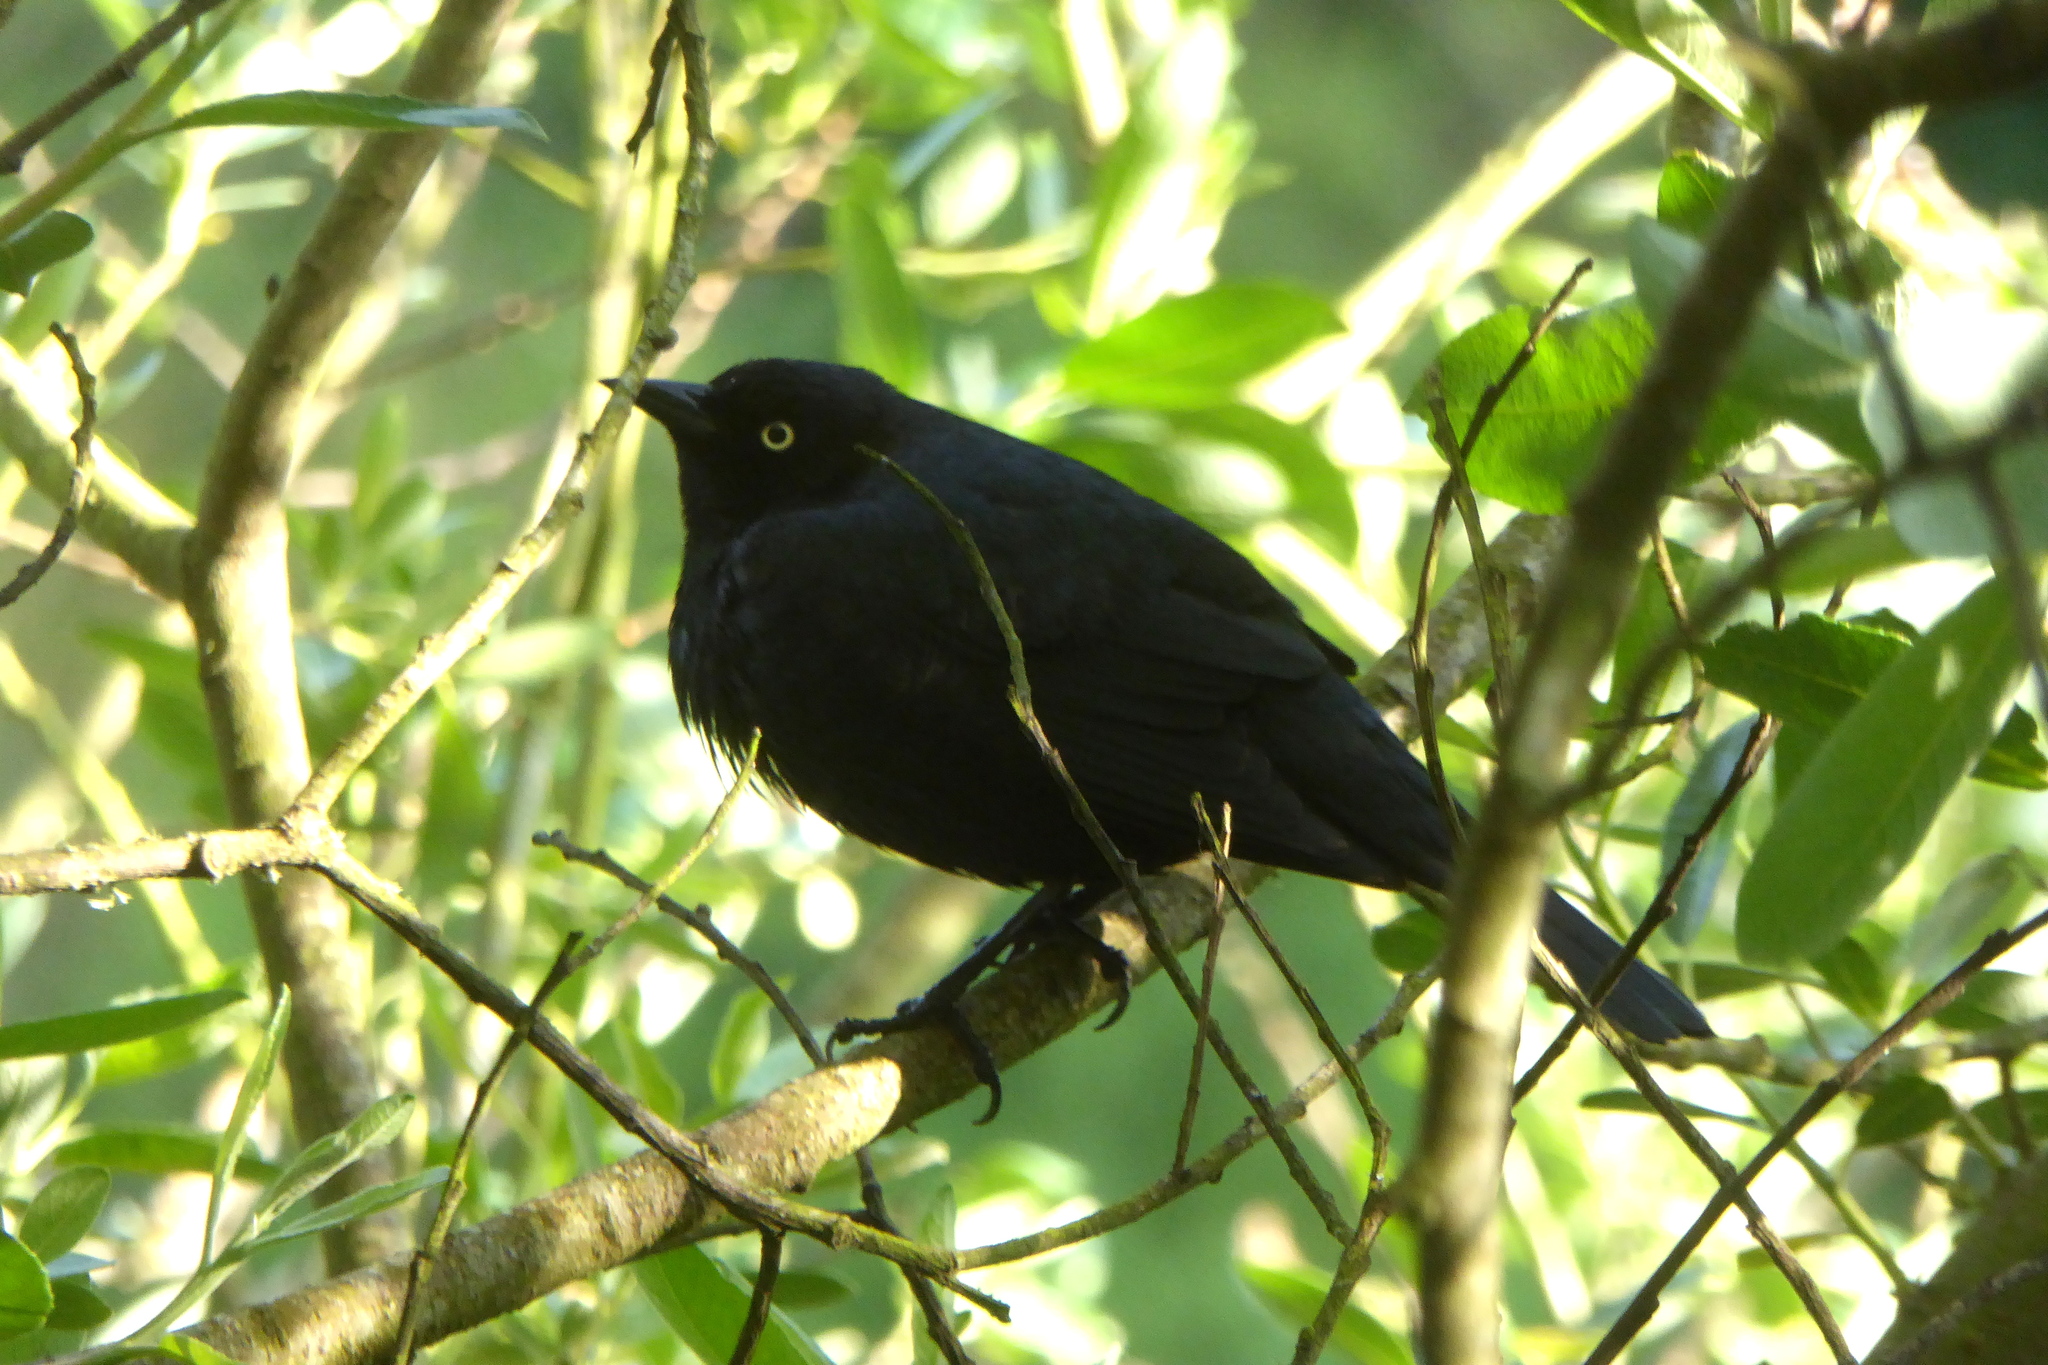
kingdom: Animalia
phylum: Chordata
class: Aves
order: Passeriformes
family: Icteridae
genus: Euphagus
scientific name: Euphagus cyanocephalus
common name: Brewer's blackbird
